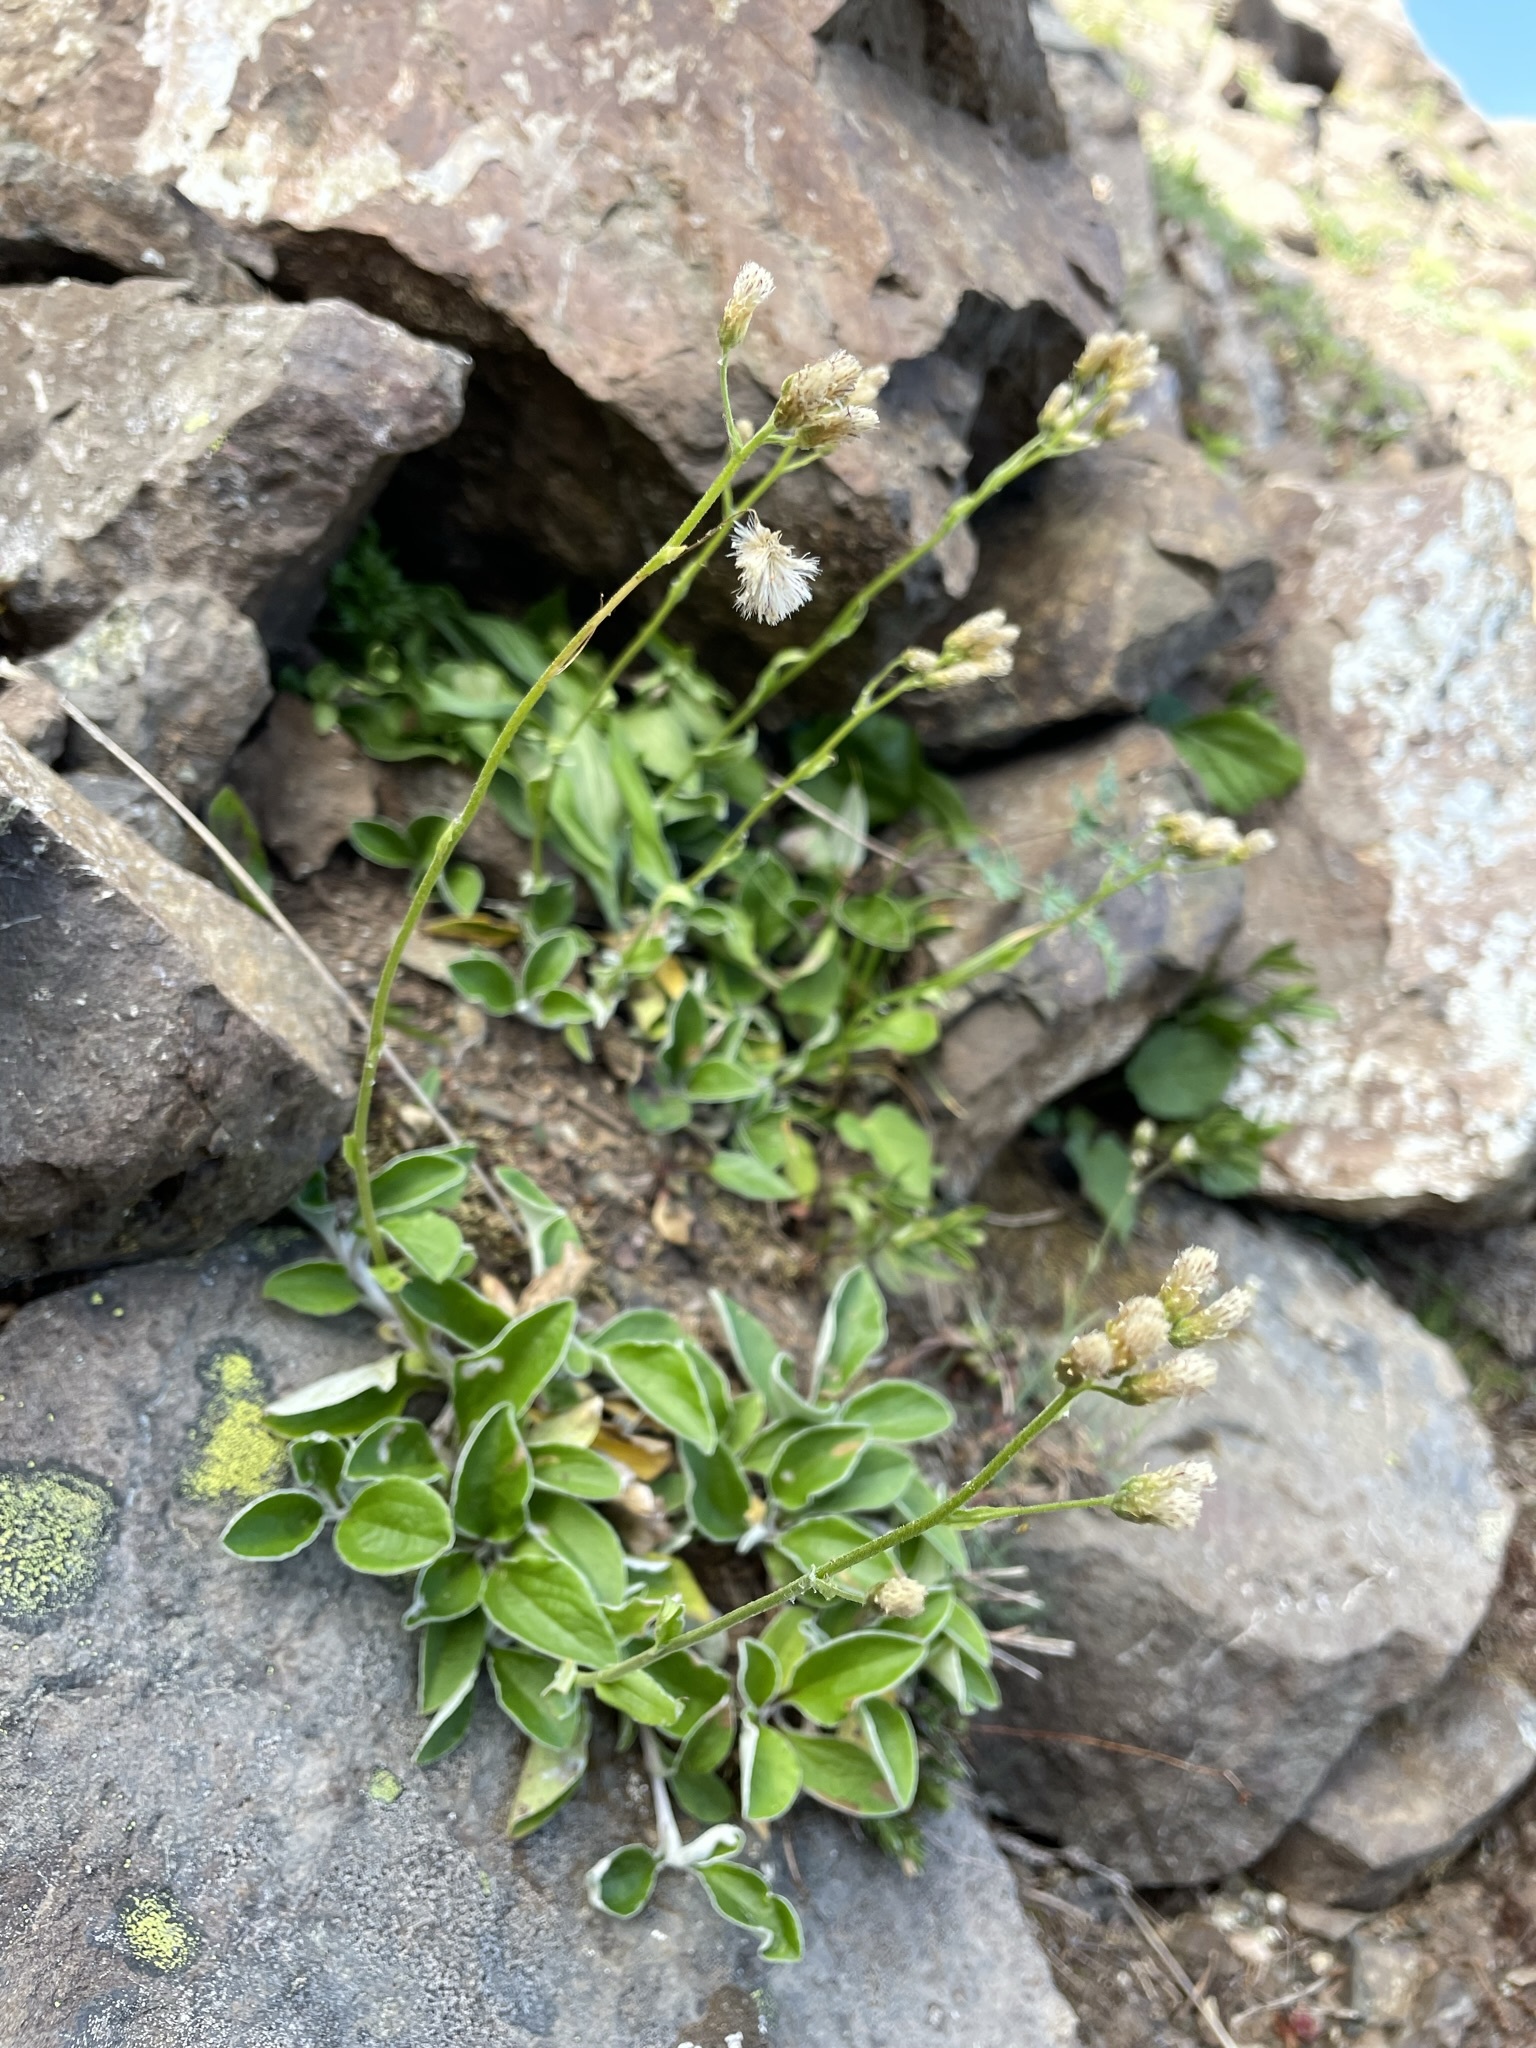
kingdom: Plantae
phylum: Tracheophyta
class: Magnoliopsida
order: Asterales
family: Asteraceae
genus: Antennaria
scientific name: Antennaria racemosa
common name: Racemose pussytoes
